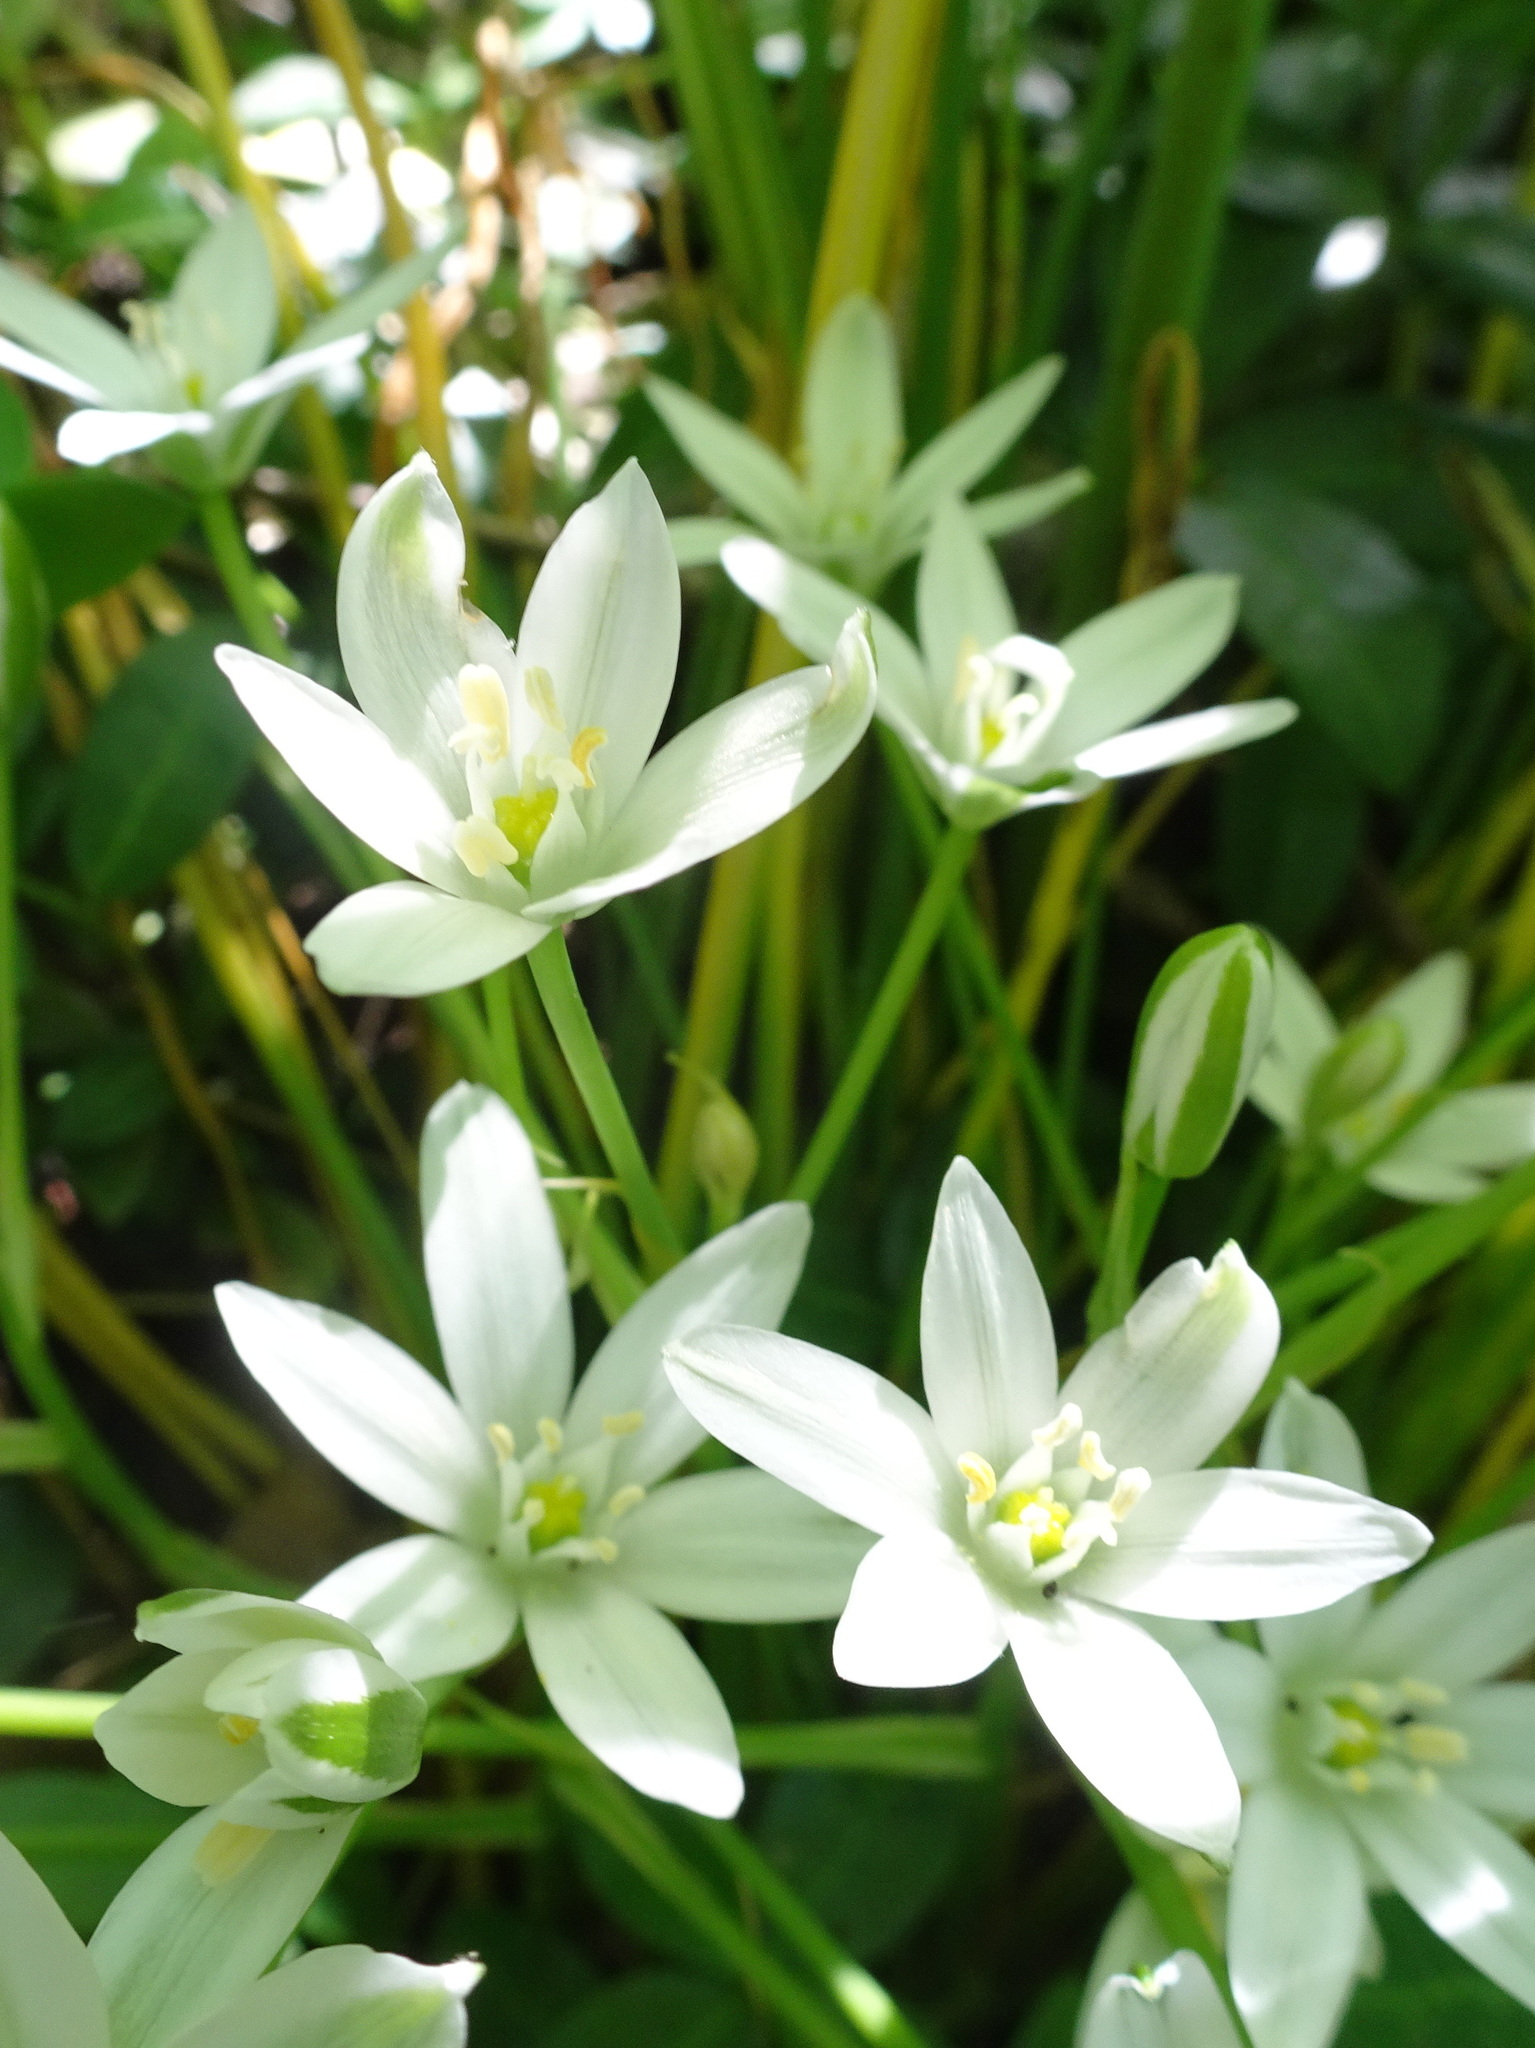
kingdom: Plantae
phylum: Tracheophyta
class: Liliopsida
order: Asparagales
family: Asparagaceae
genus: Ornithogalum
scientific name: Ornithogalum umbellatum
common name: Garden star-of-bethlehem
